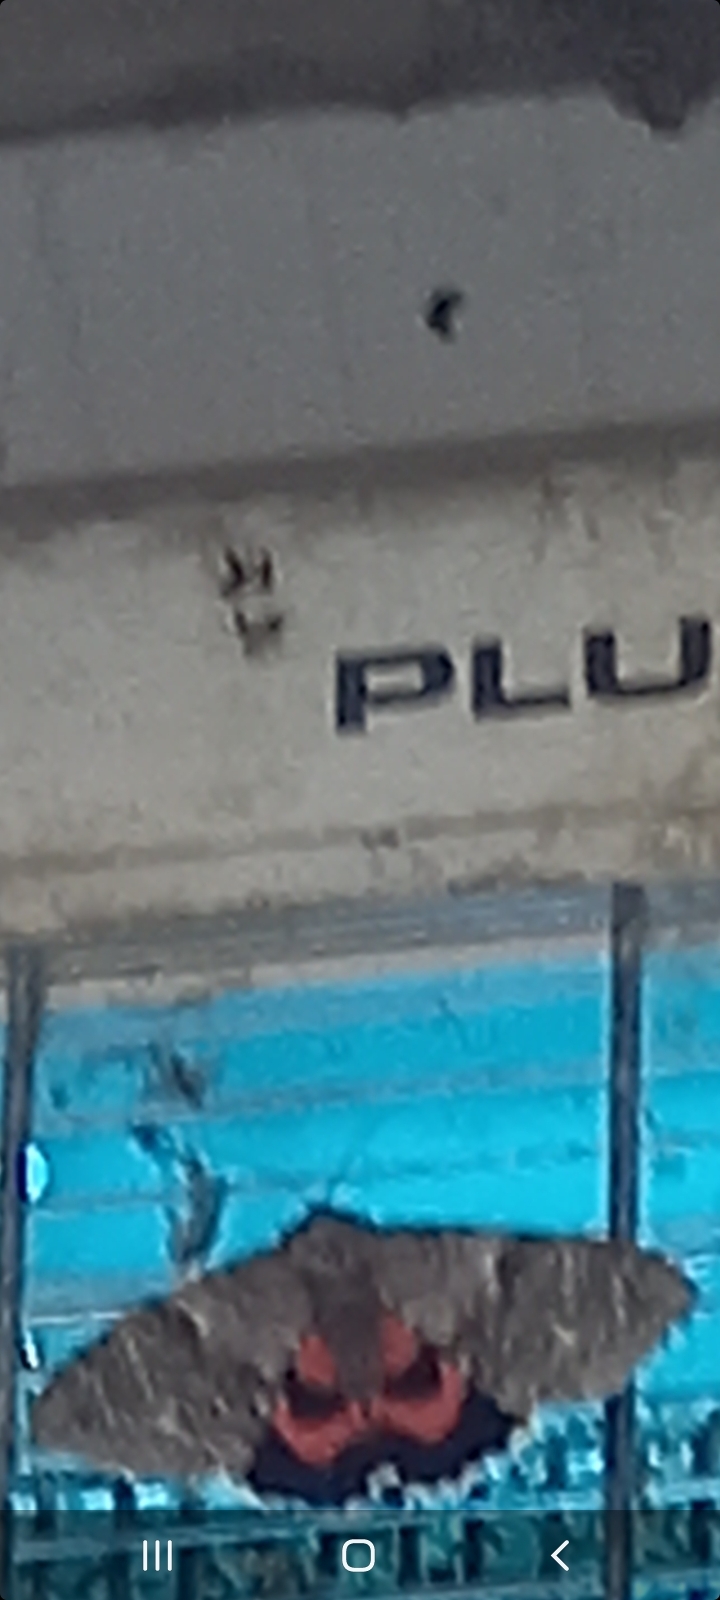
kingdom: Animalia
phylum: Arthropoda
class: Insecta
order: Lepidoptera
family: Erebidae
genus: Catocala
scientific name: Catocala nupta
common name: Red underwing
